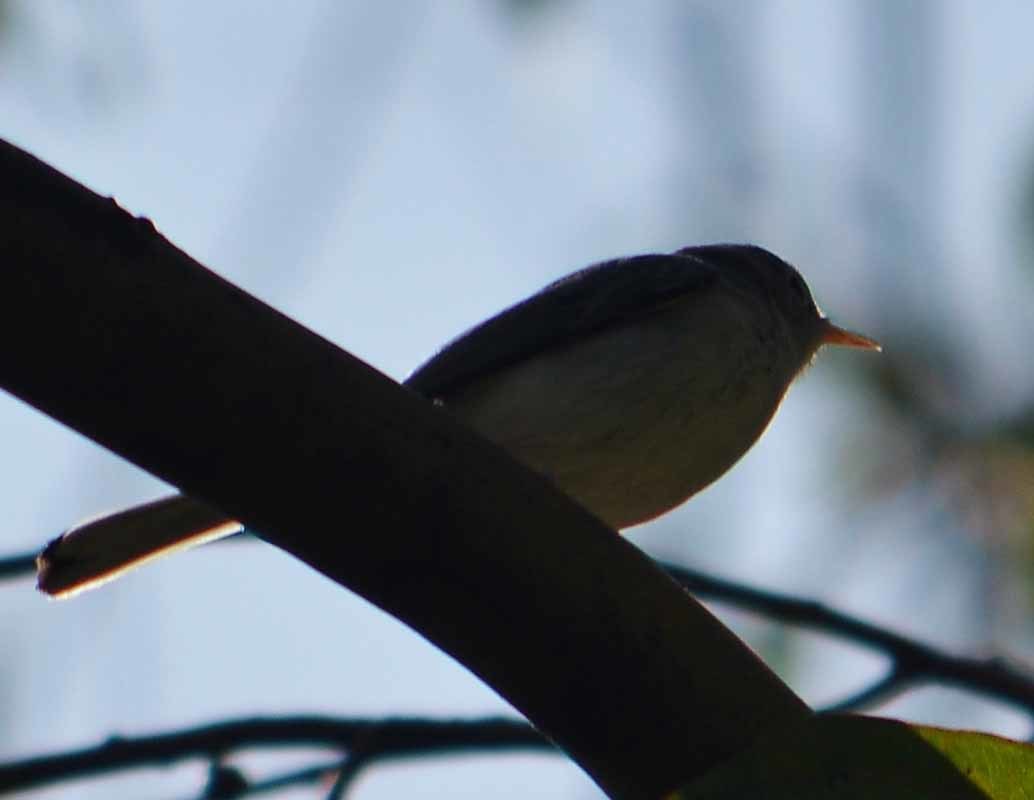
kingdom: Animalia
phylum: Chordata
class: Aves
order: Passeriformes
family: Polioptilidae
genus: Polioptila
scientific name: Polioptila caerulea
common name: Blue-gray gnatcatcher
